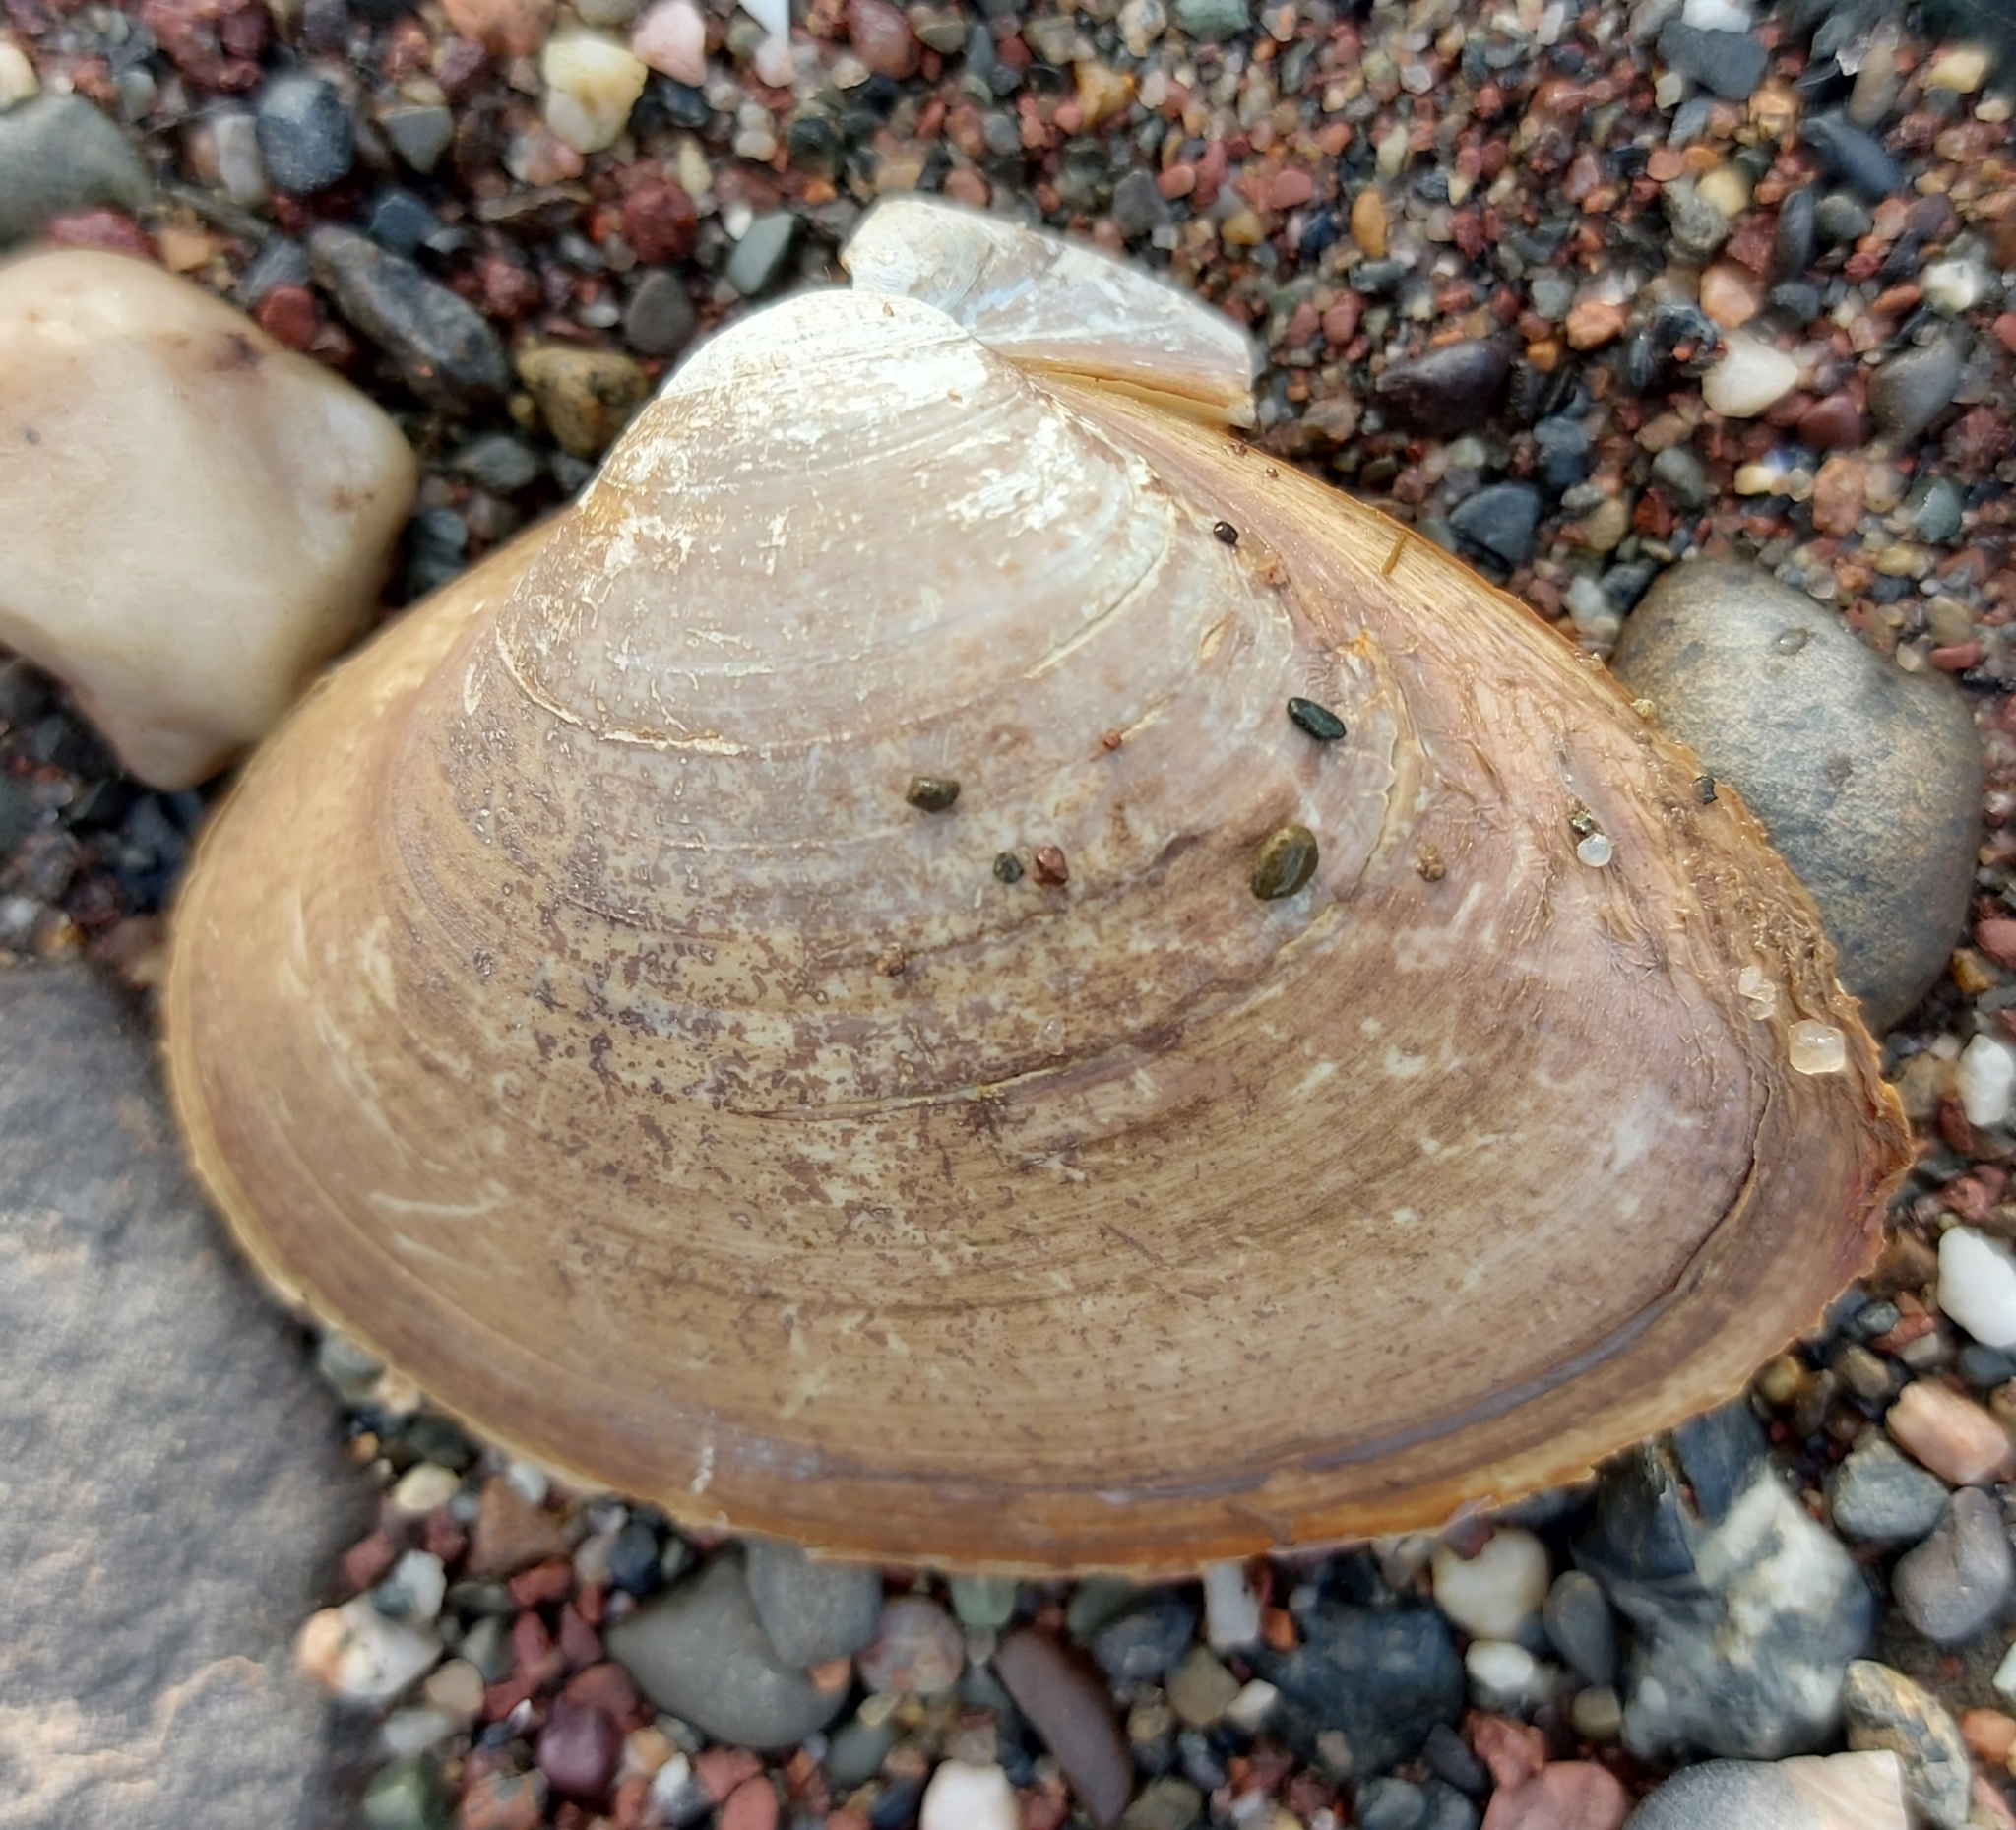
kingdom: Animalia
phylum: Mollusca
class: Bivalvia
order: Venerida
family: Mactridae
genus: Spisula
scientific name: Spisula solidissima
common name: Atlantic surf clam
